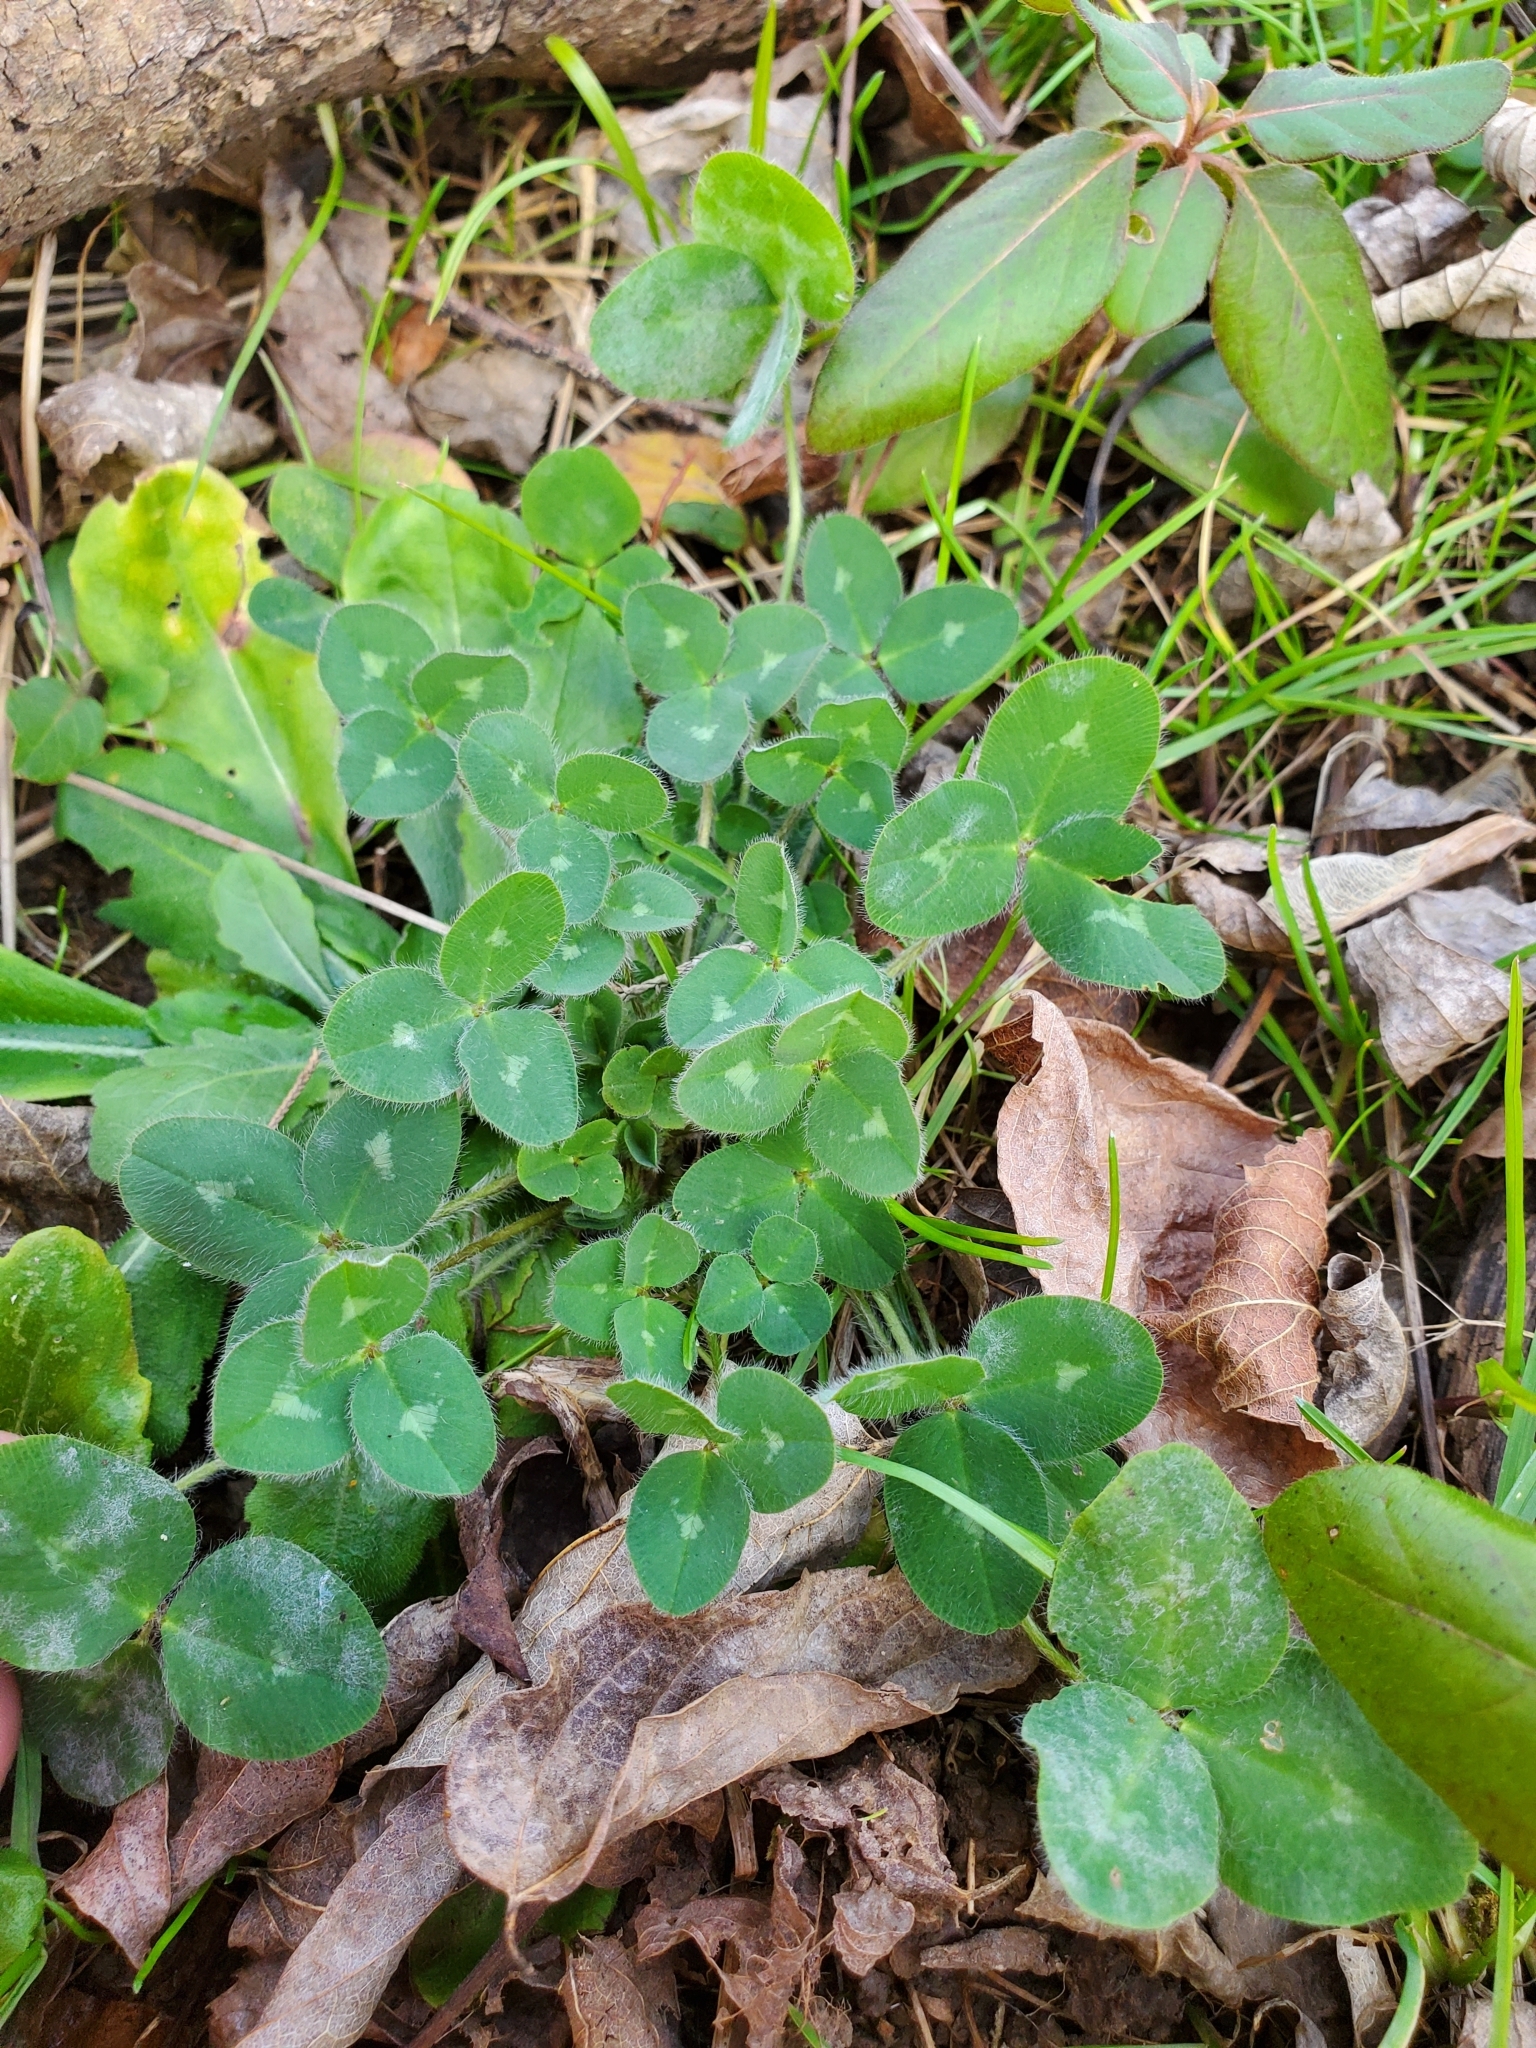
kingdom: Plantae
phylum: Tracheophyta
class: Magnoliopsida
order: Fabales
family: Fabaceae
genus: Trifolium
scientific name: Trifolium pratense
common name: Red clover
